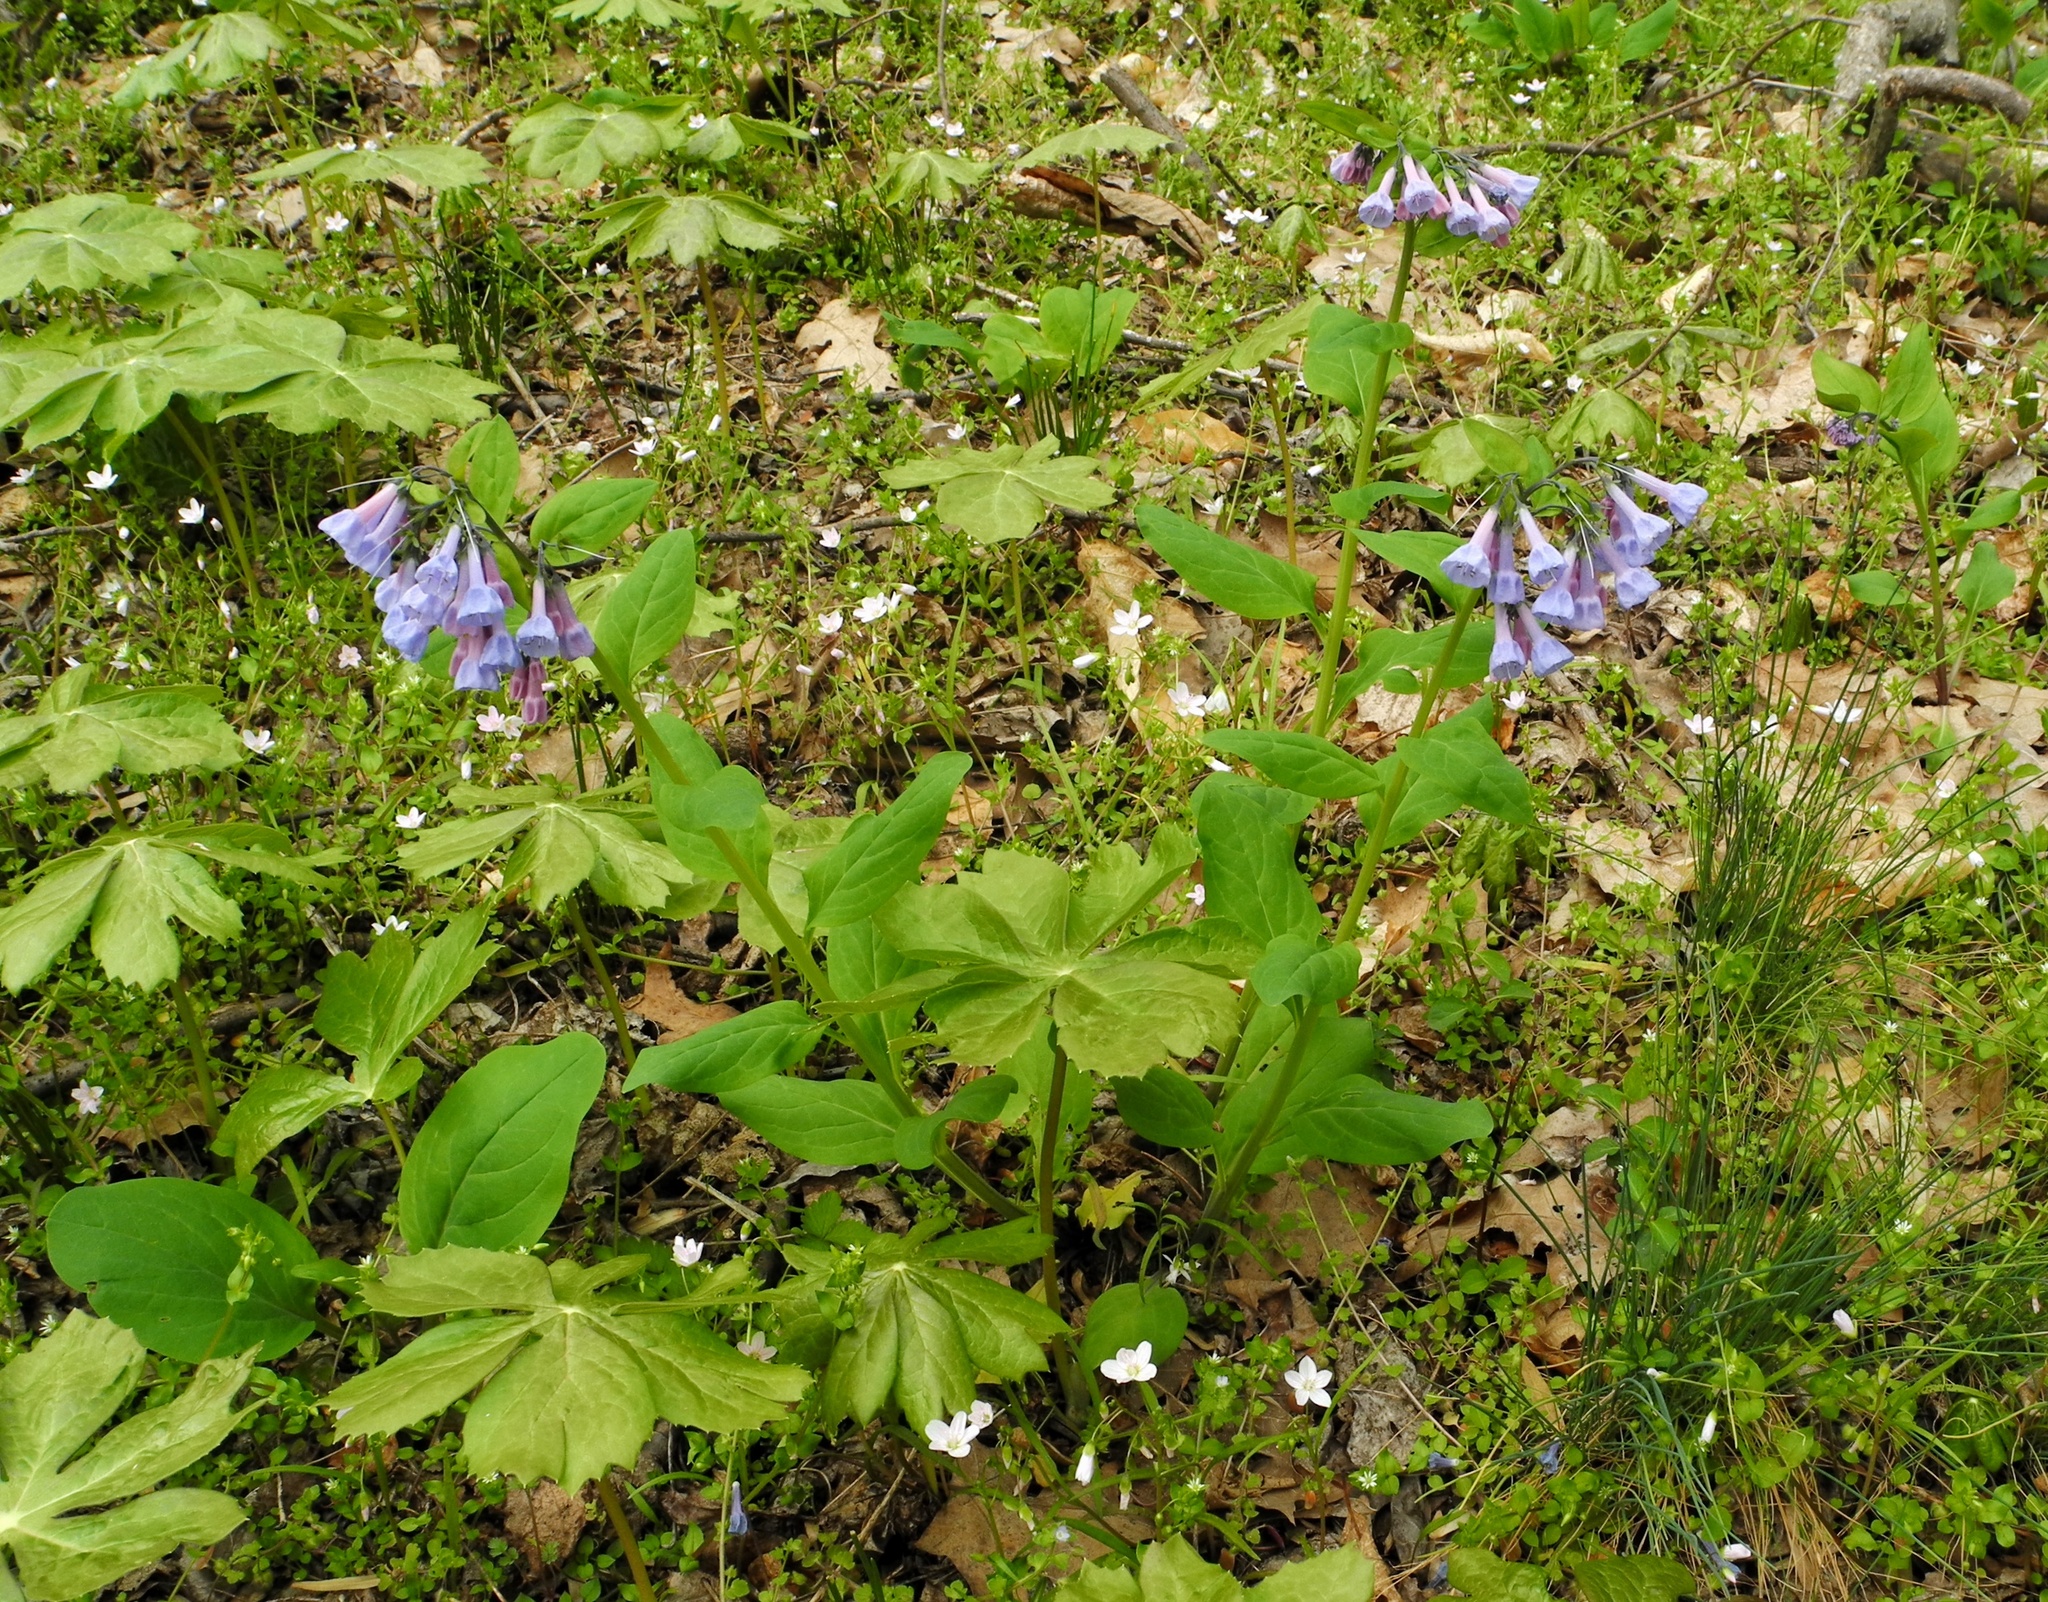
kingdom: Plantae
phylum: Tracheophyta
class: Magnoliopsida
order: Boraginales
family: Boraginaceae
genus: Mertensia
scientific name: Mertensia virginica
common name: Virginia bluebells
